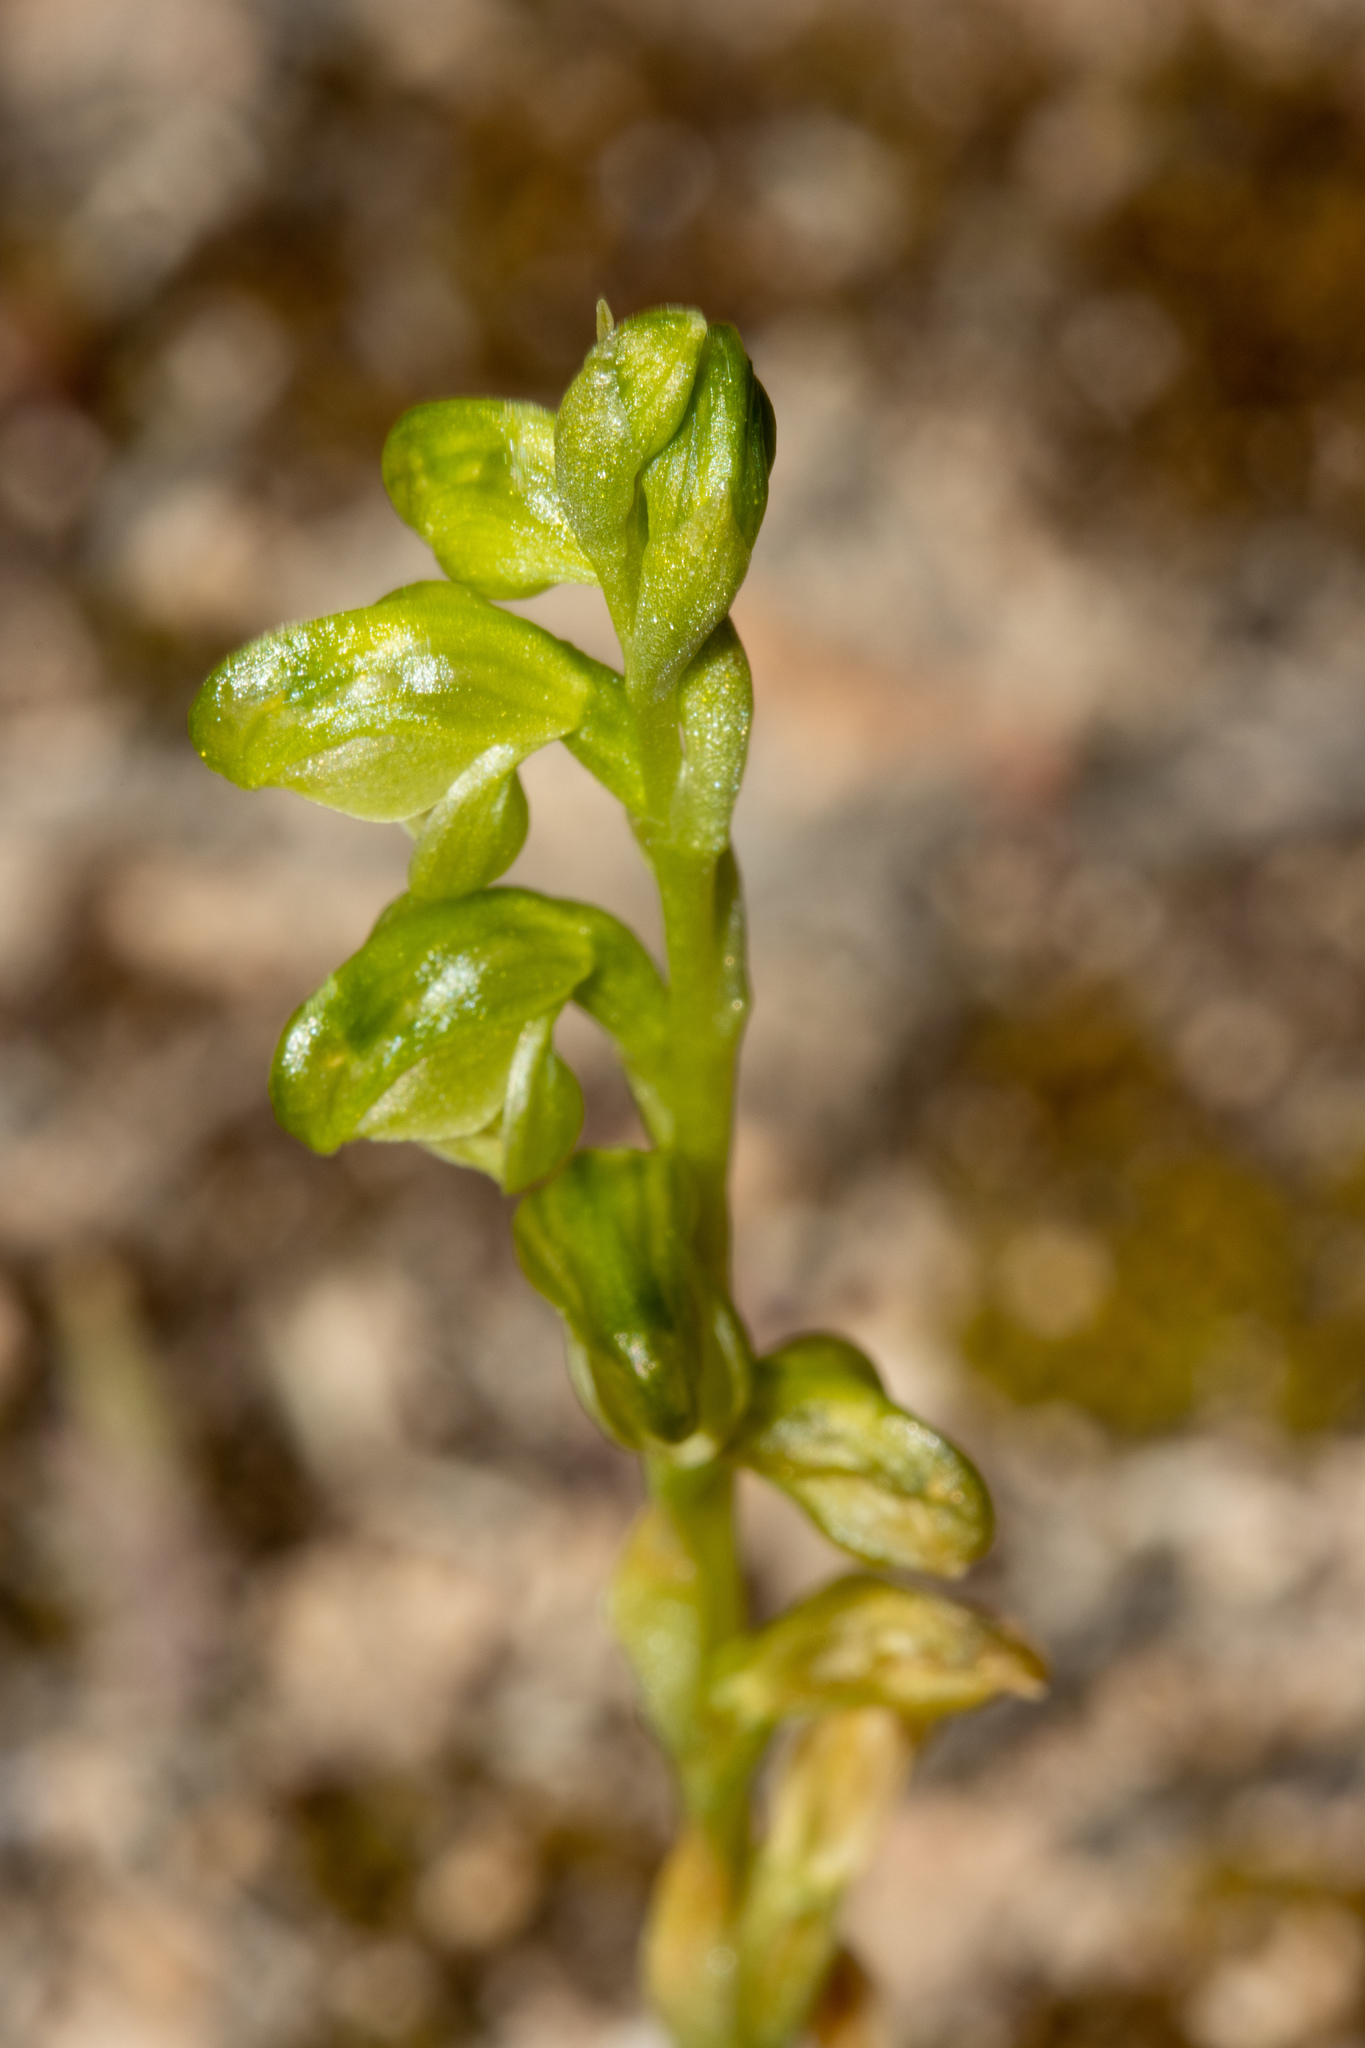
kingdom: Plantae
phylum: Tracheophyta
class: Liliopsida
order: Asparagales
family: Orchidaceae
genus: Pterostylis
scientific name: Pterostylis mutica
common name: Midget greenhood
